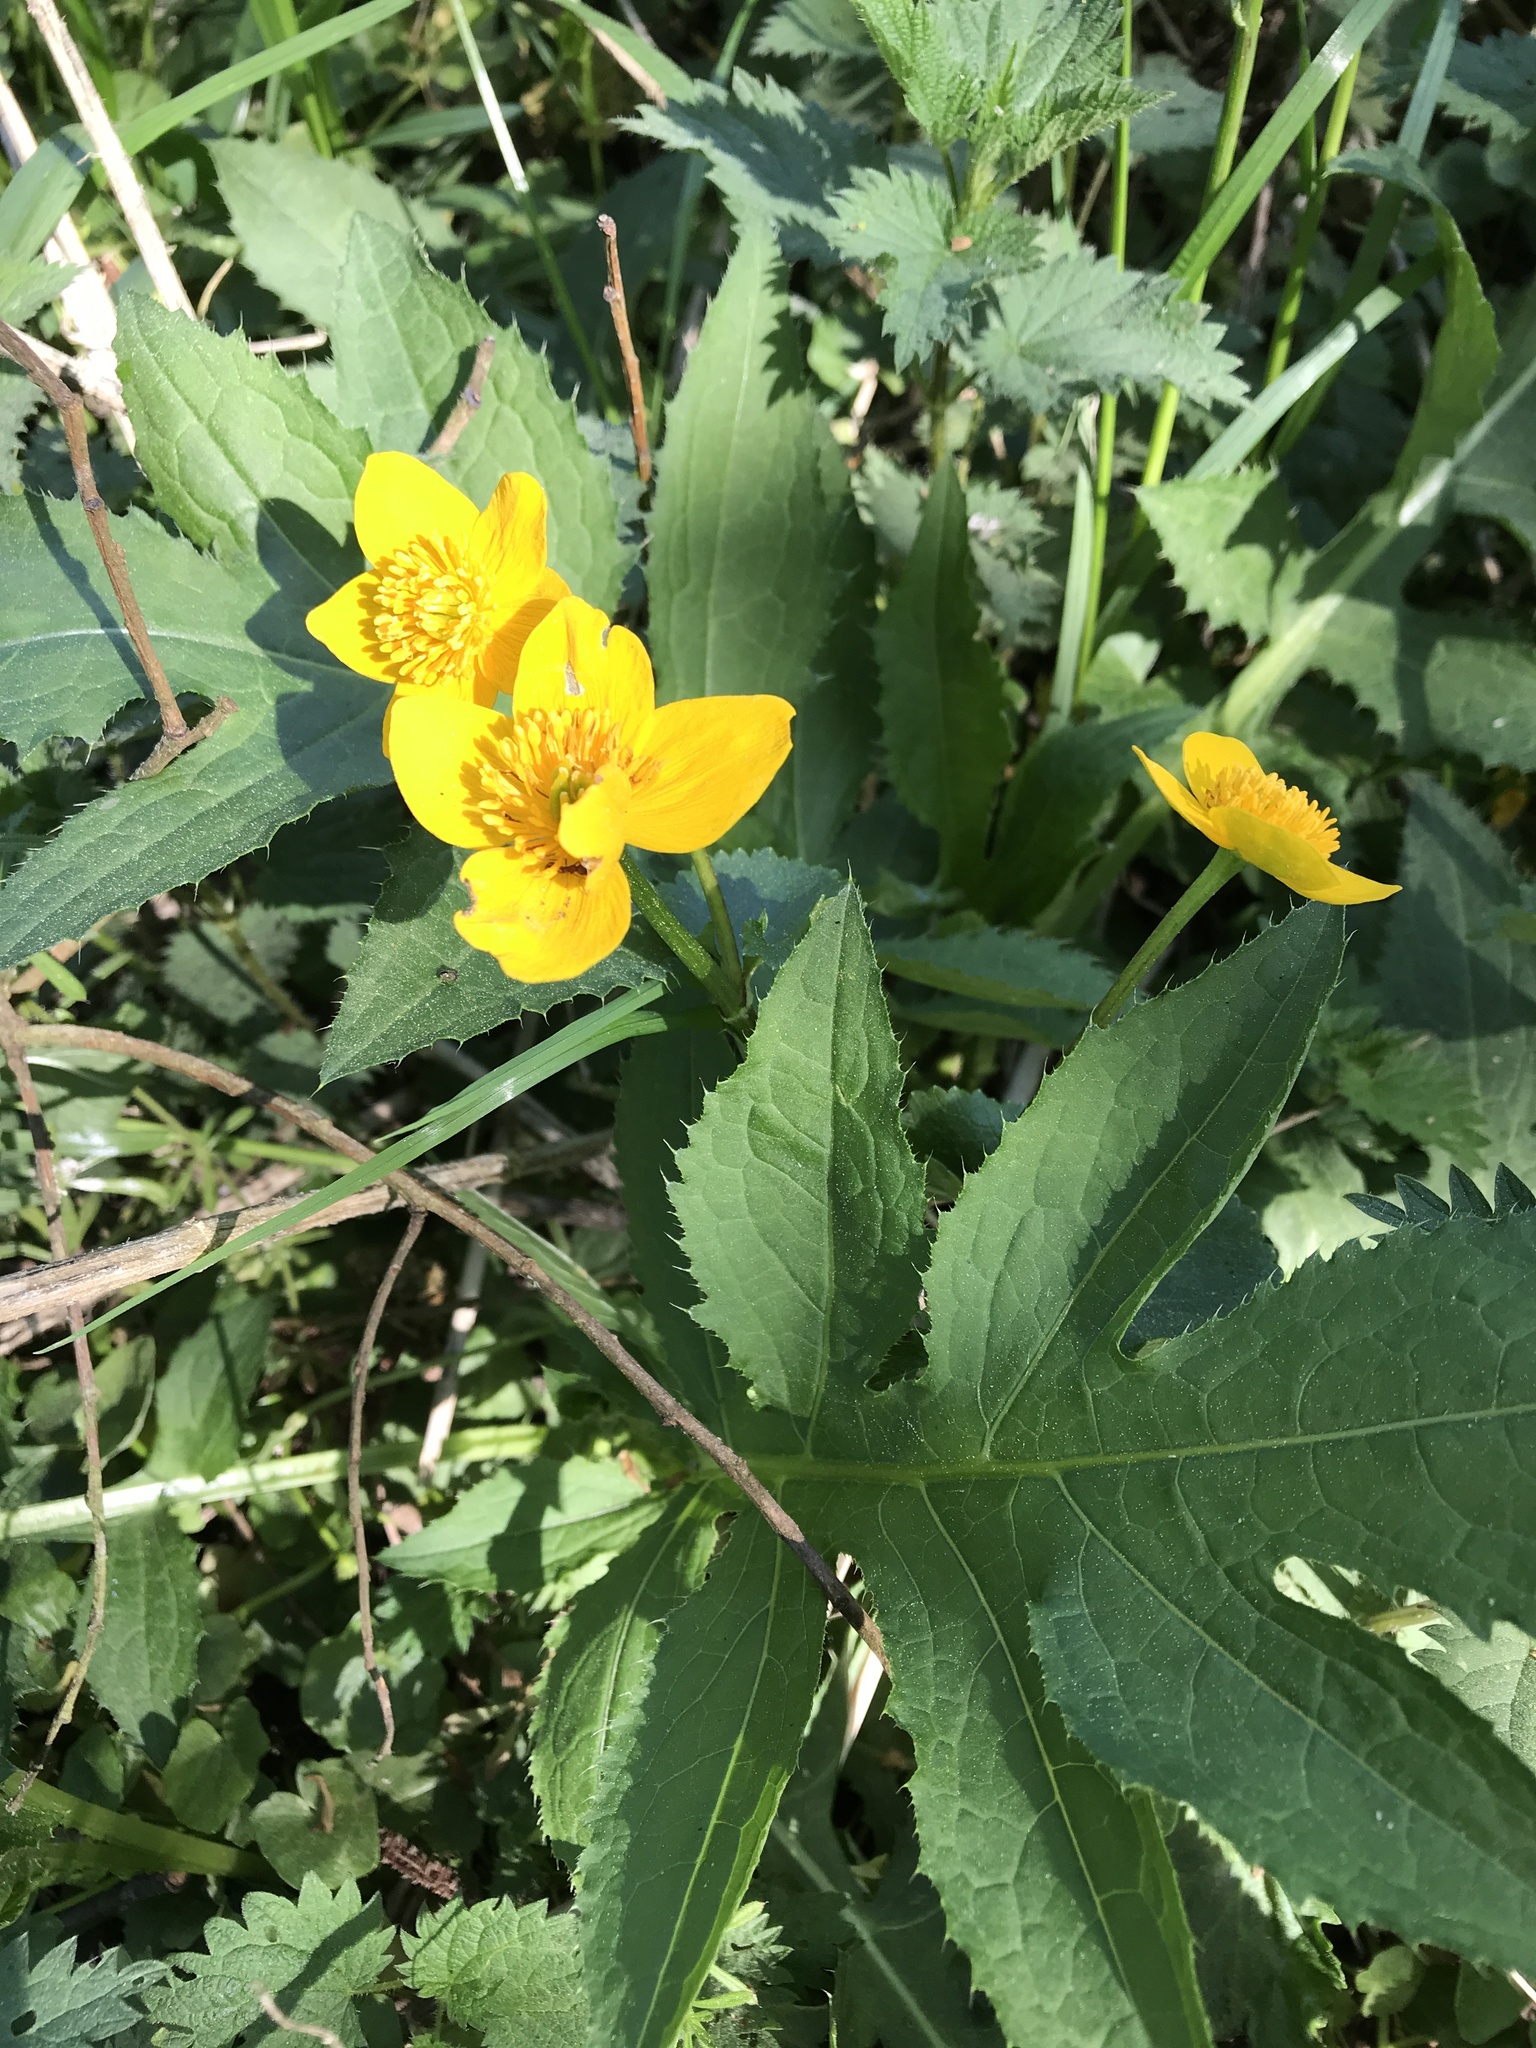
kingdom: Plantae
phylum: Tracheophyta
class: Magnoliopsida
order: Ranunculales
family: Ranunculaceae
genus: Caltha
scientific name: Caltha palustris
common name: Marsh marigold
